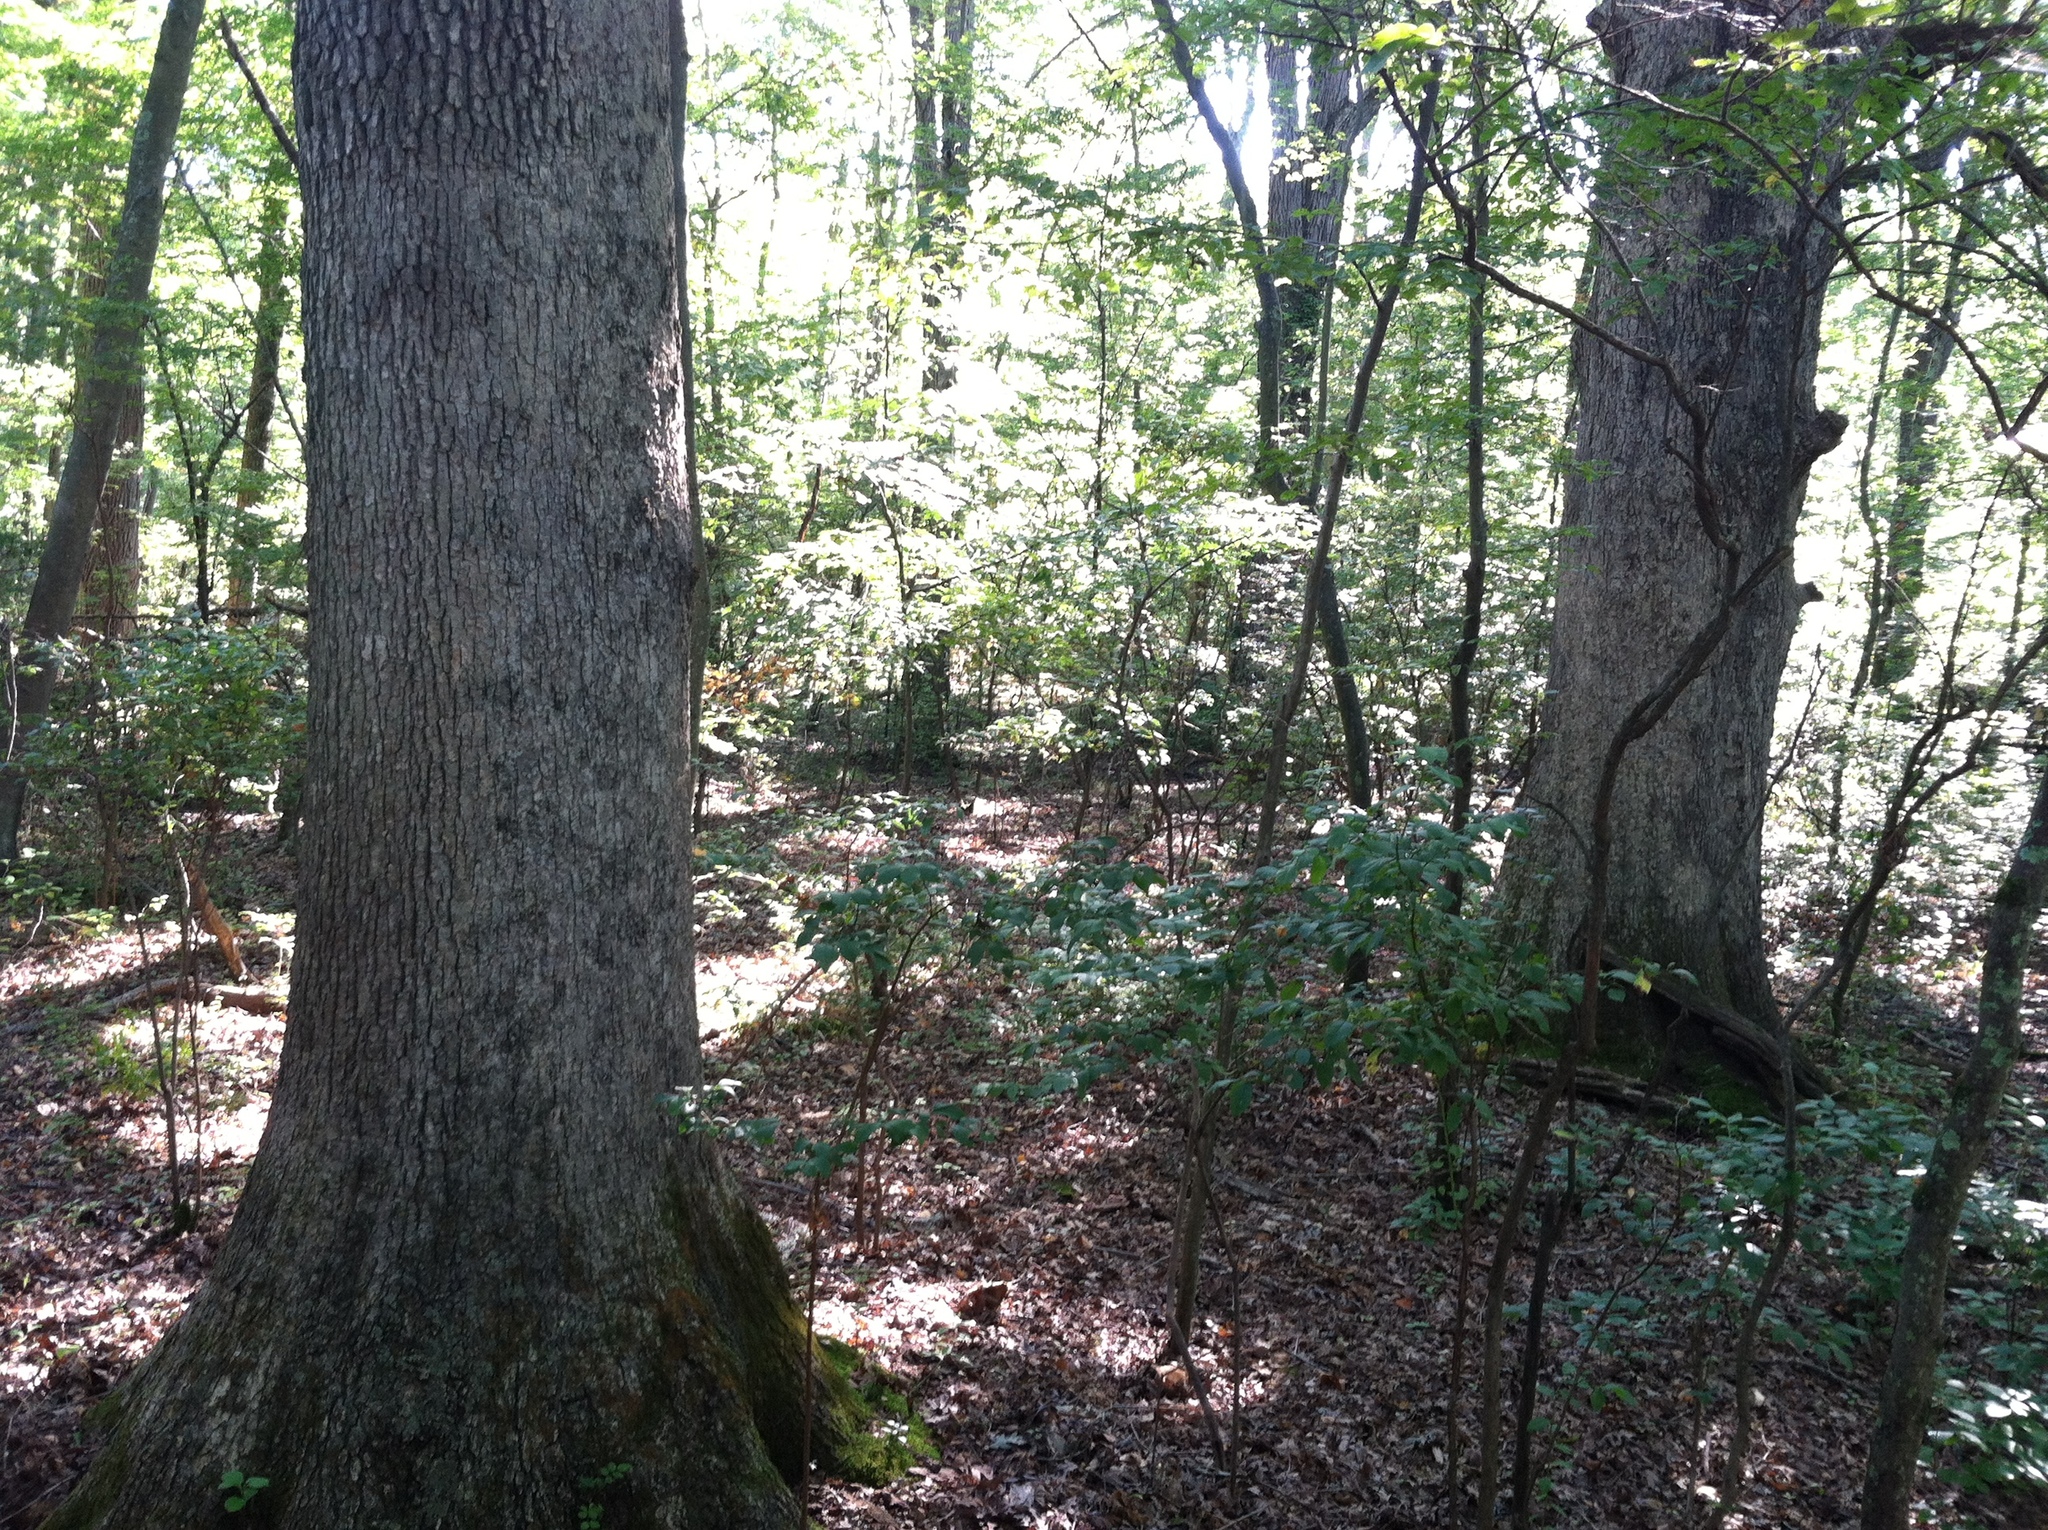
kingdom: Plantae
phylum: Tracheophyta
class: Magnoliopsida
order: Fagales
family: Fagaceae
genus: Quercus
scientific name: Quercus alba
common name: White oak
